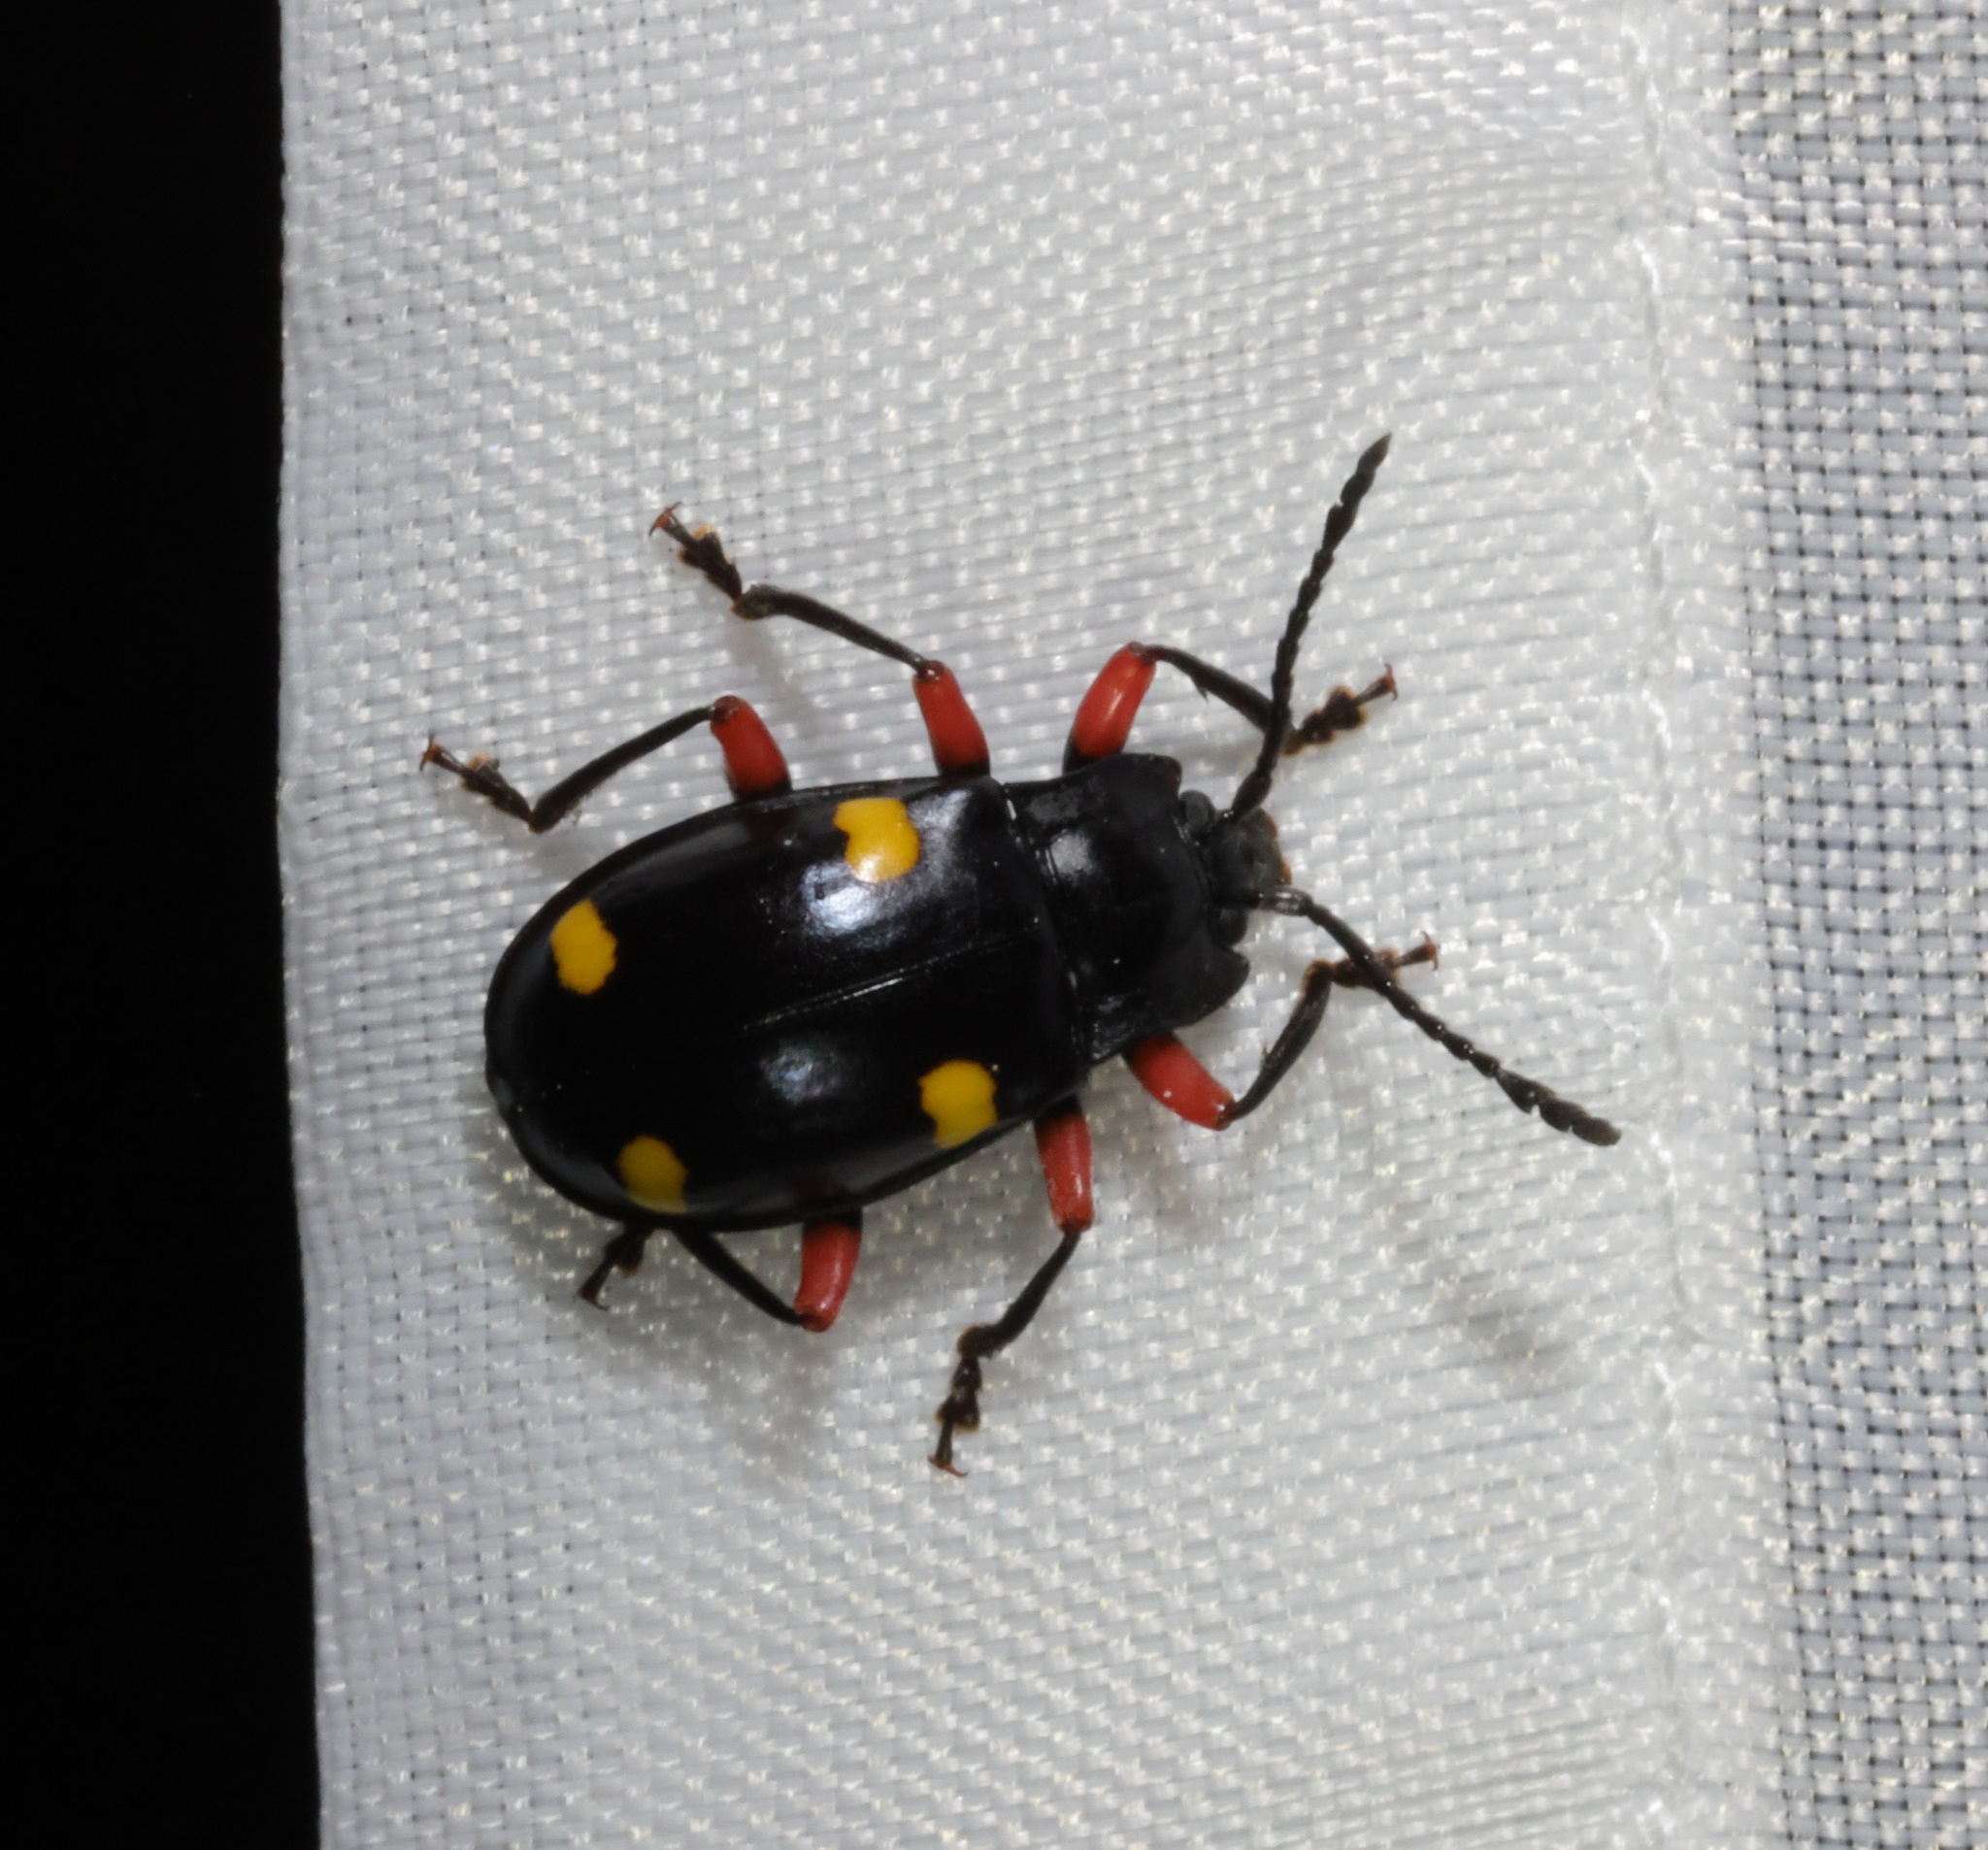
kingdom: Animalia
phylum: Arthropoda
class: Insecta
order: Coleoptera
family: Endomychidae
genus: Eumorphus
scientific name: Eumorphus quadriguttatus
